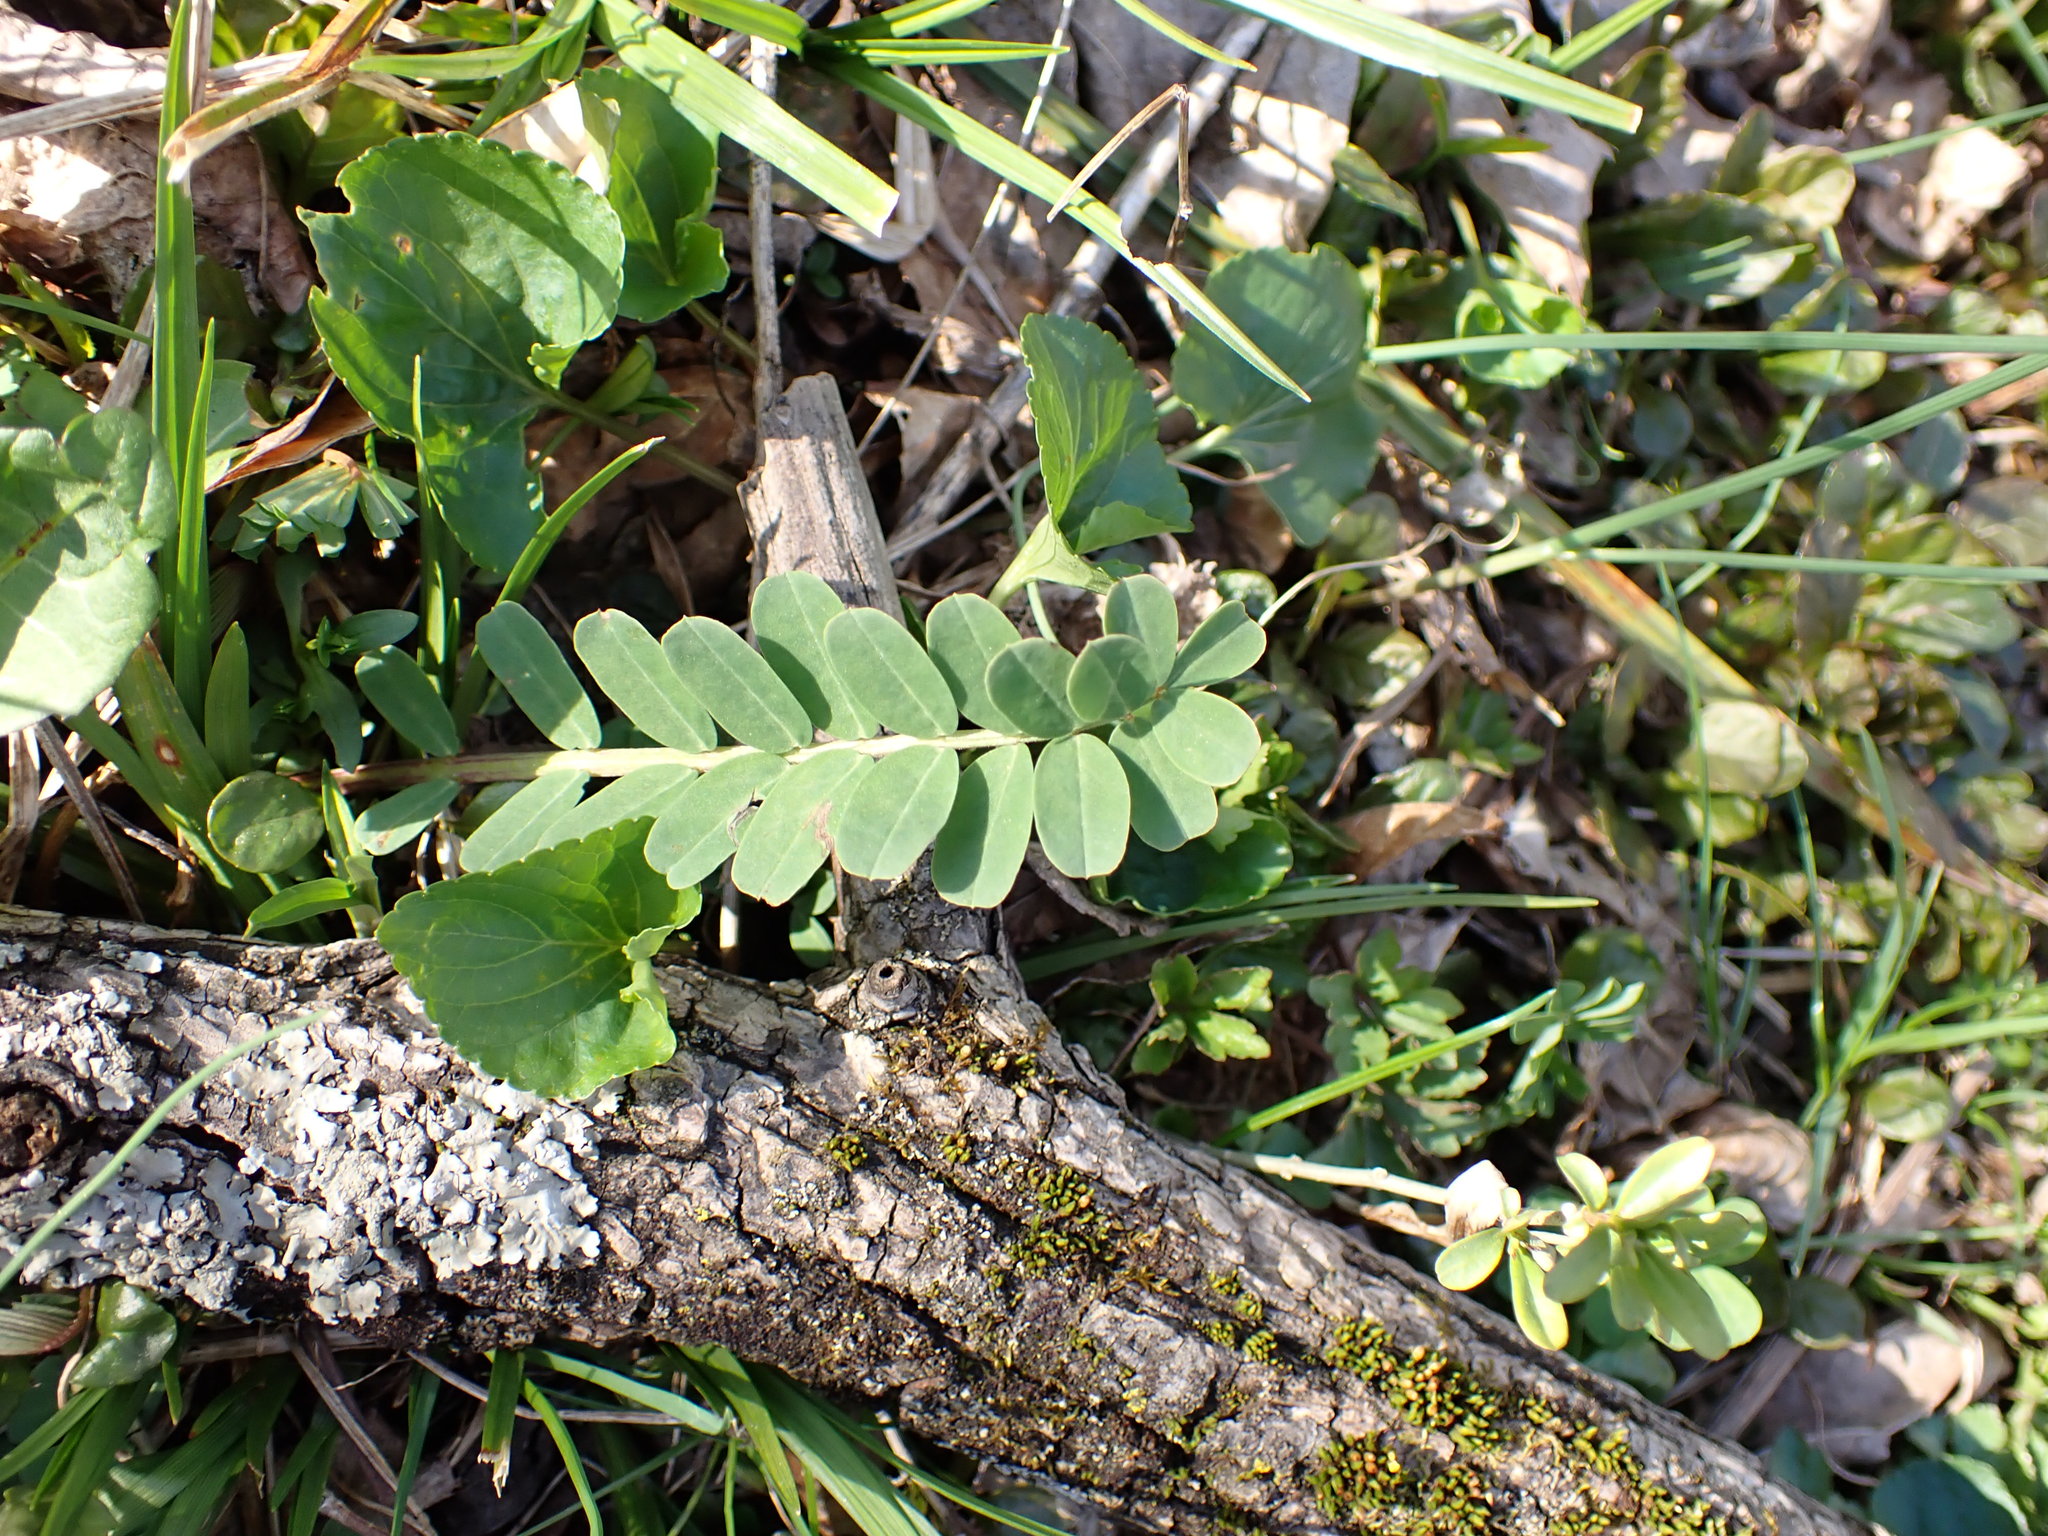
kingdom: Plantae
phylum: Tracheophyta
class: Magnoliopsida
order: Fabales
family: Fabaceae
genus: Coronilla
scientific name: Coronilla varia
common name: Crownvetch
